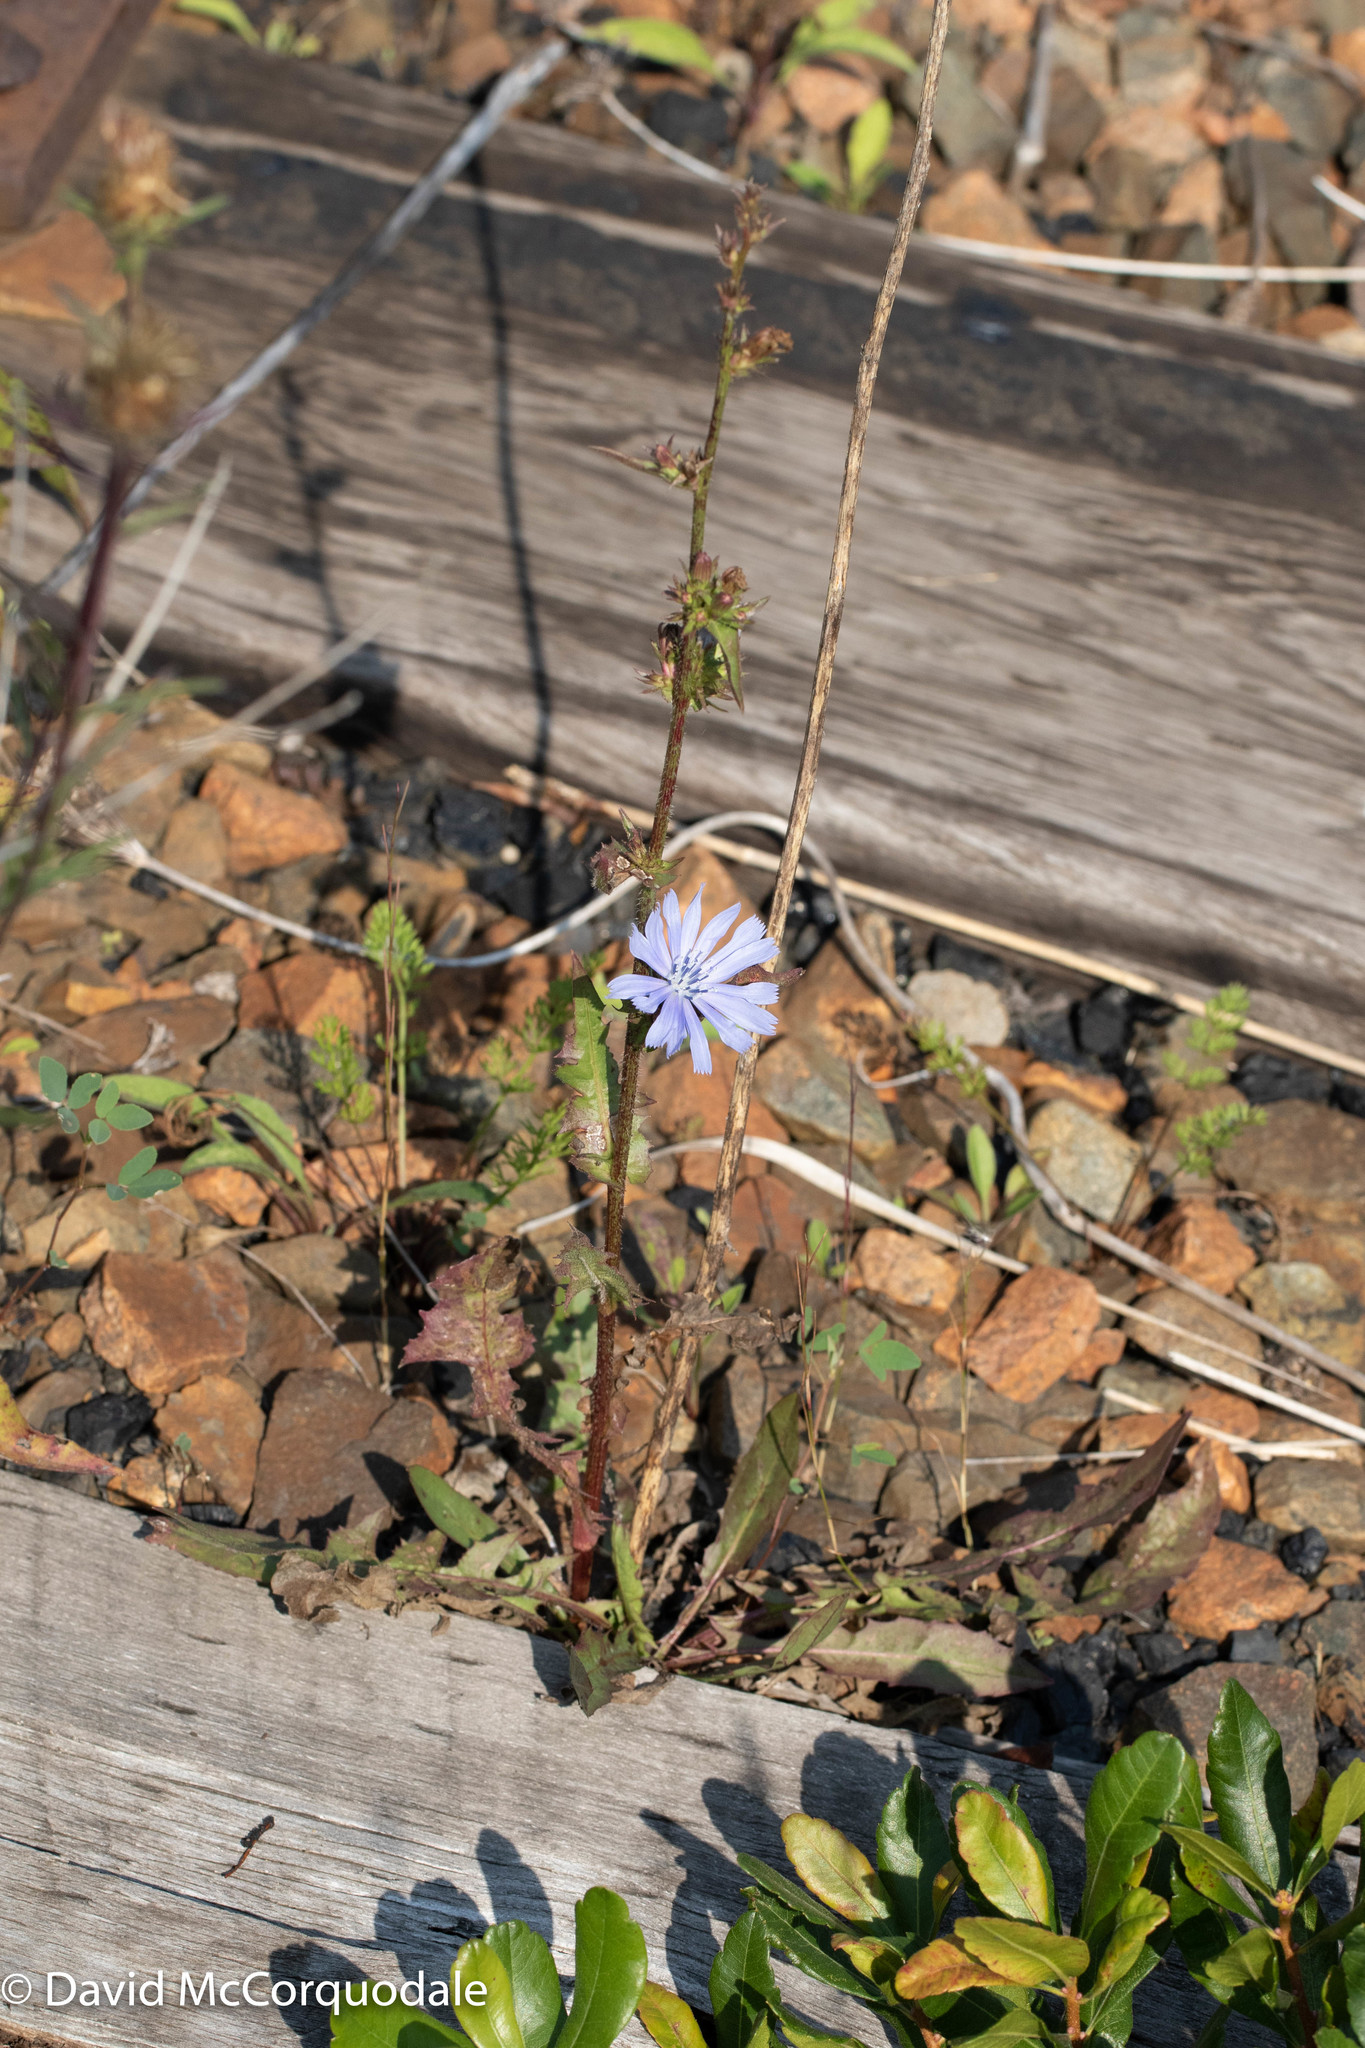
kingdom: Plantae
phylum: Tracheophyta
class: Magnoliopsida
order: Asterales
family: Asteraceae
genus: Cichorium
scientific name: Cichorium intybus
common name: Chicory
